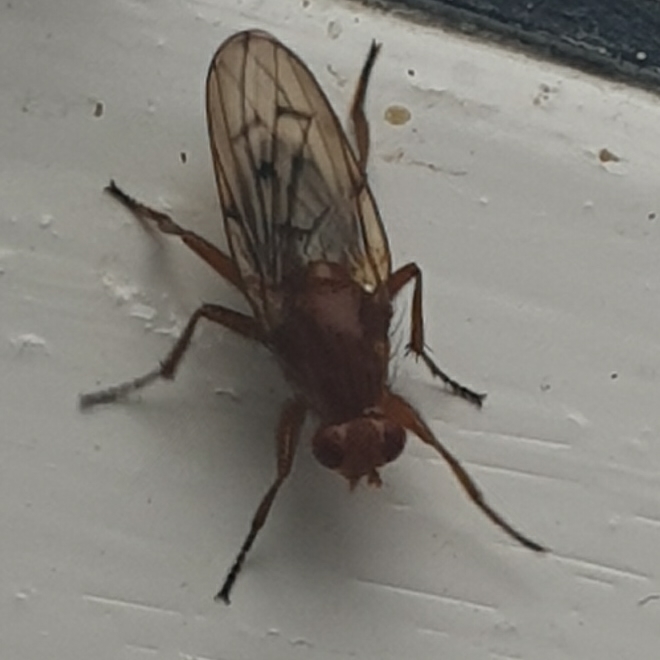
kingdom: Animalia
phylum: Arthropoda
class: Insecta
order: Diptera
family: Dryomyzidae
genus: Dryomyza
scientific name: Dryomyza anilis
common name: Marsh fly
